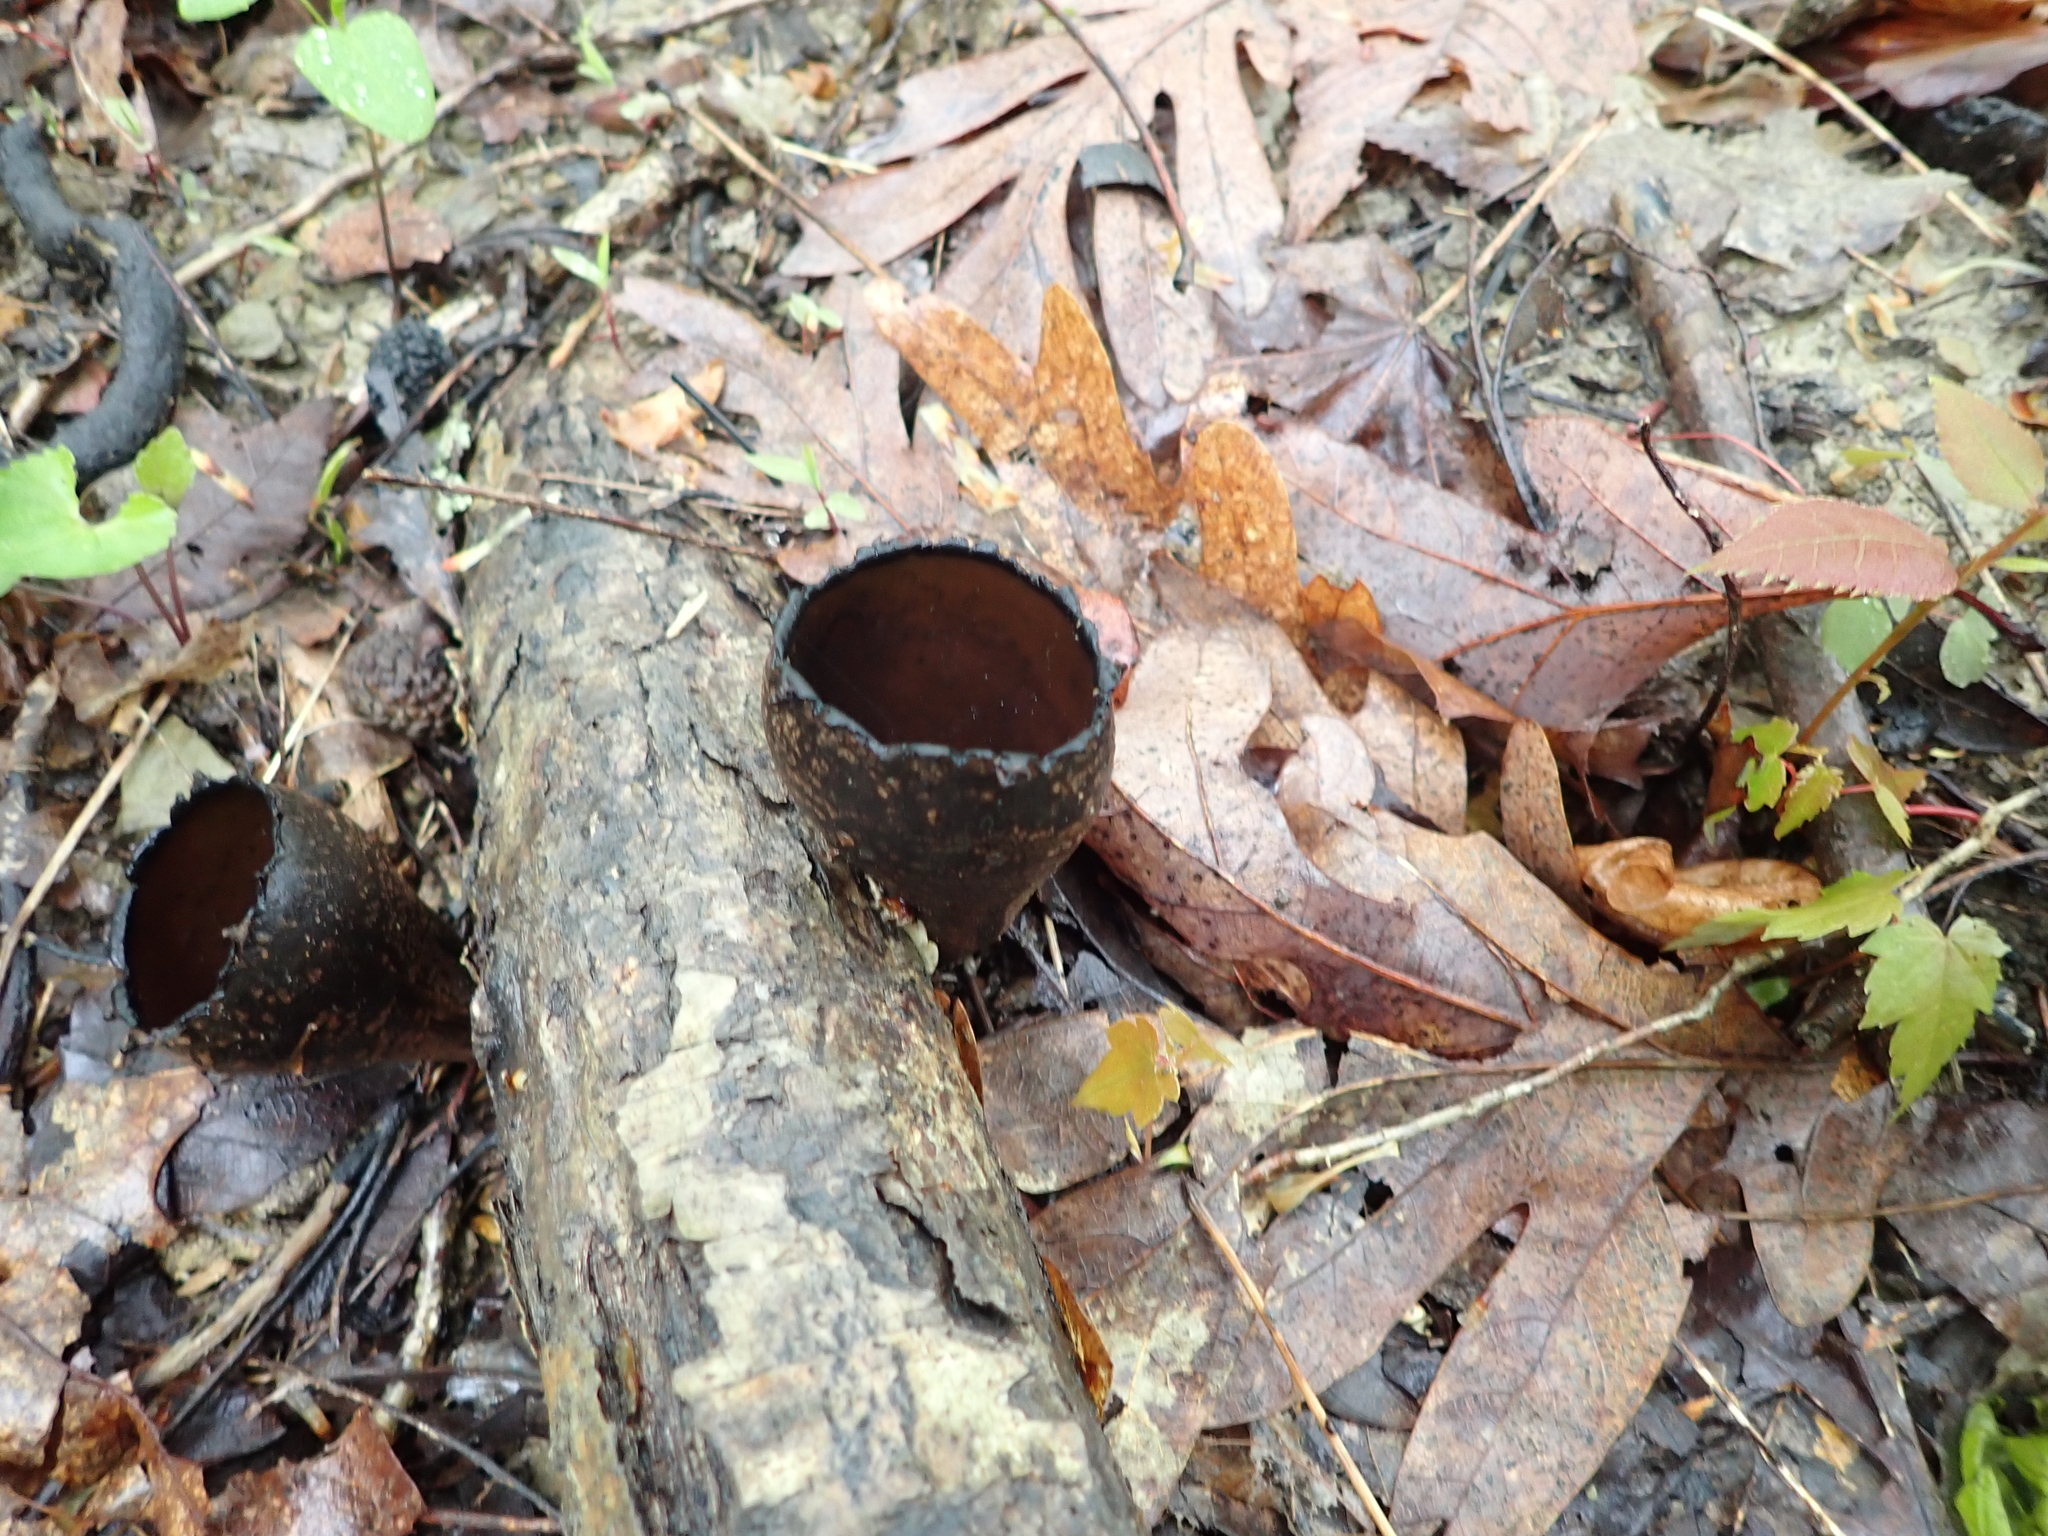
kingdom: Fungi
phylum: Ascomycota
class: Pezizomycetes
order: Pezizales
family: Sarcosomataceae
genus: Urnula
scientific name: Urnula craterium
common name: Devil's urn
